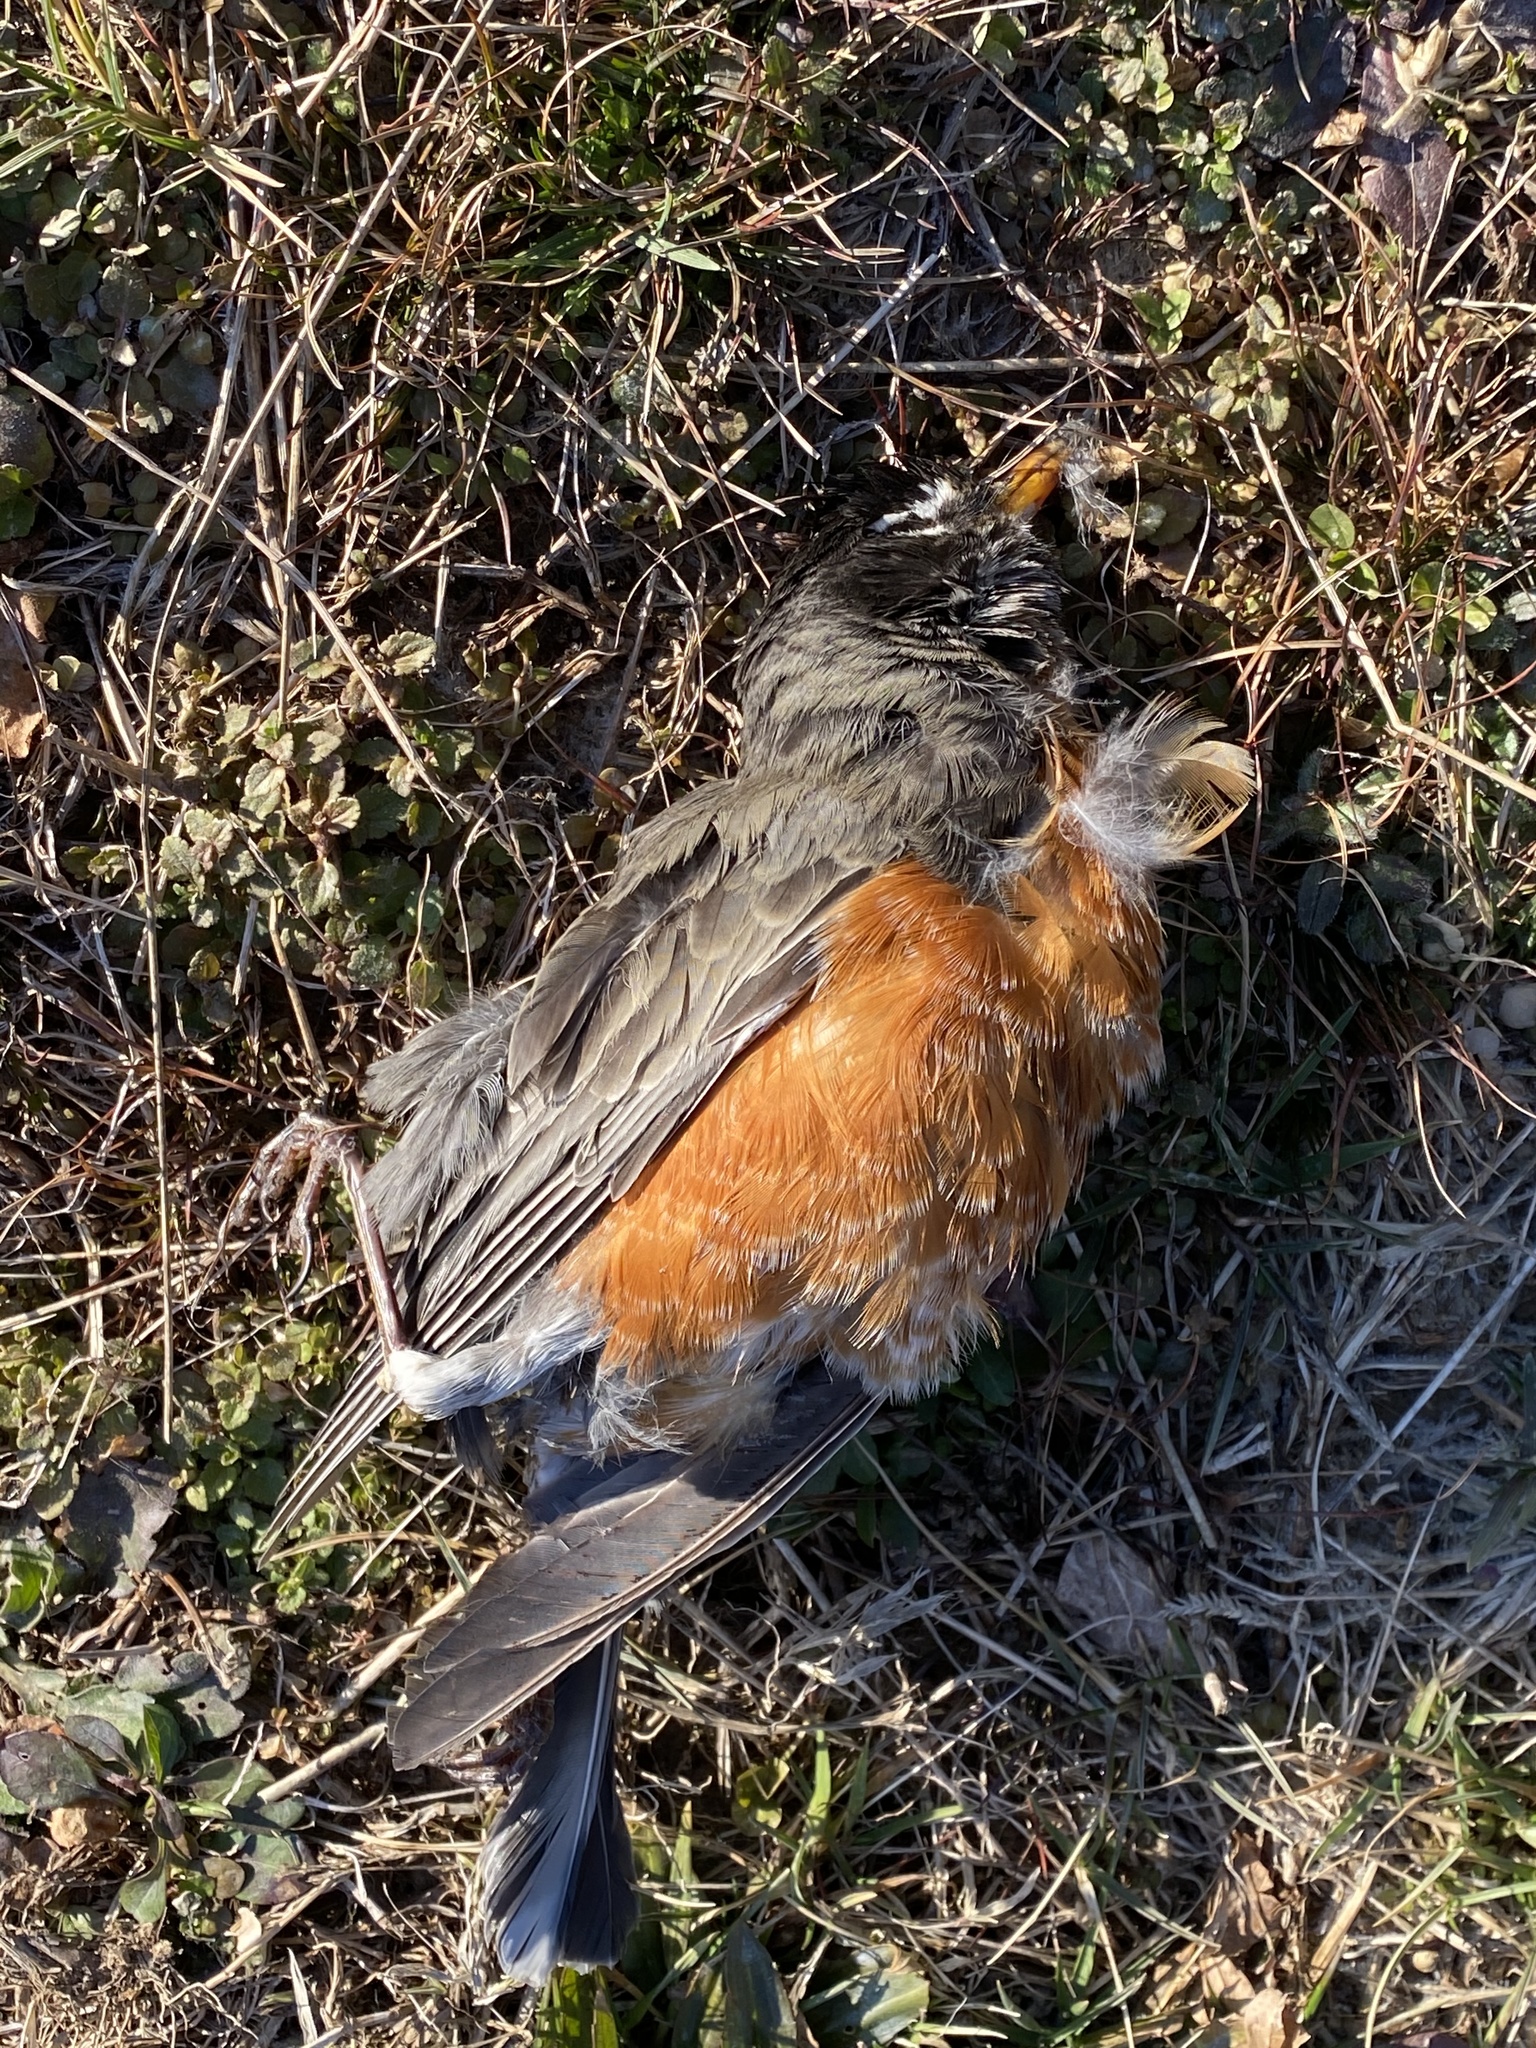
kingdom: Animalia
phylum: Chordata
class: Aves
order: Passeriformes
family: Turdidae
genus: Turdus
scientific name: Turdus migratorius
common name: American robin
